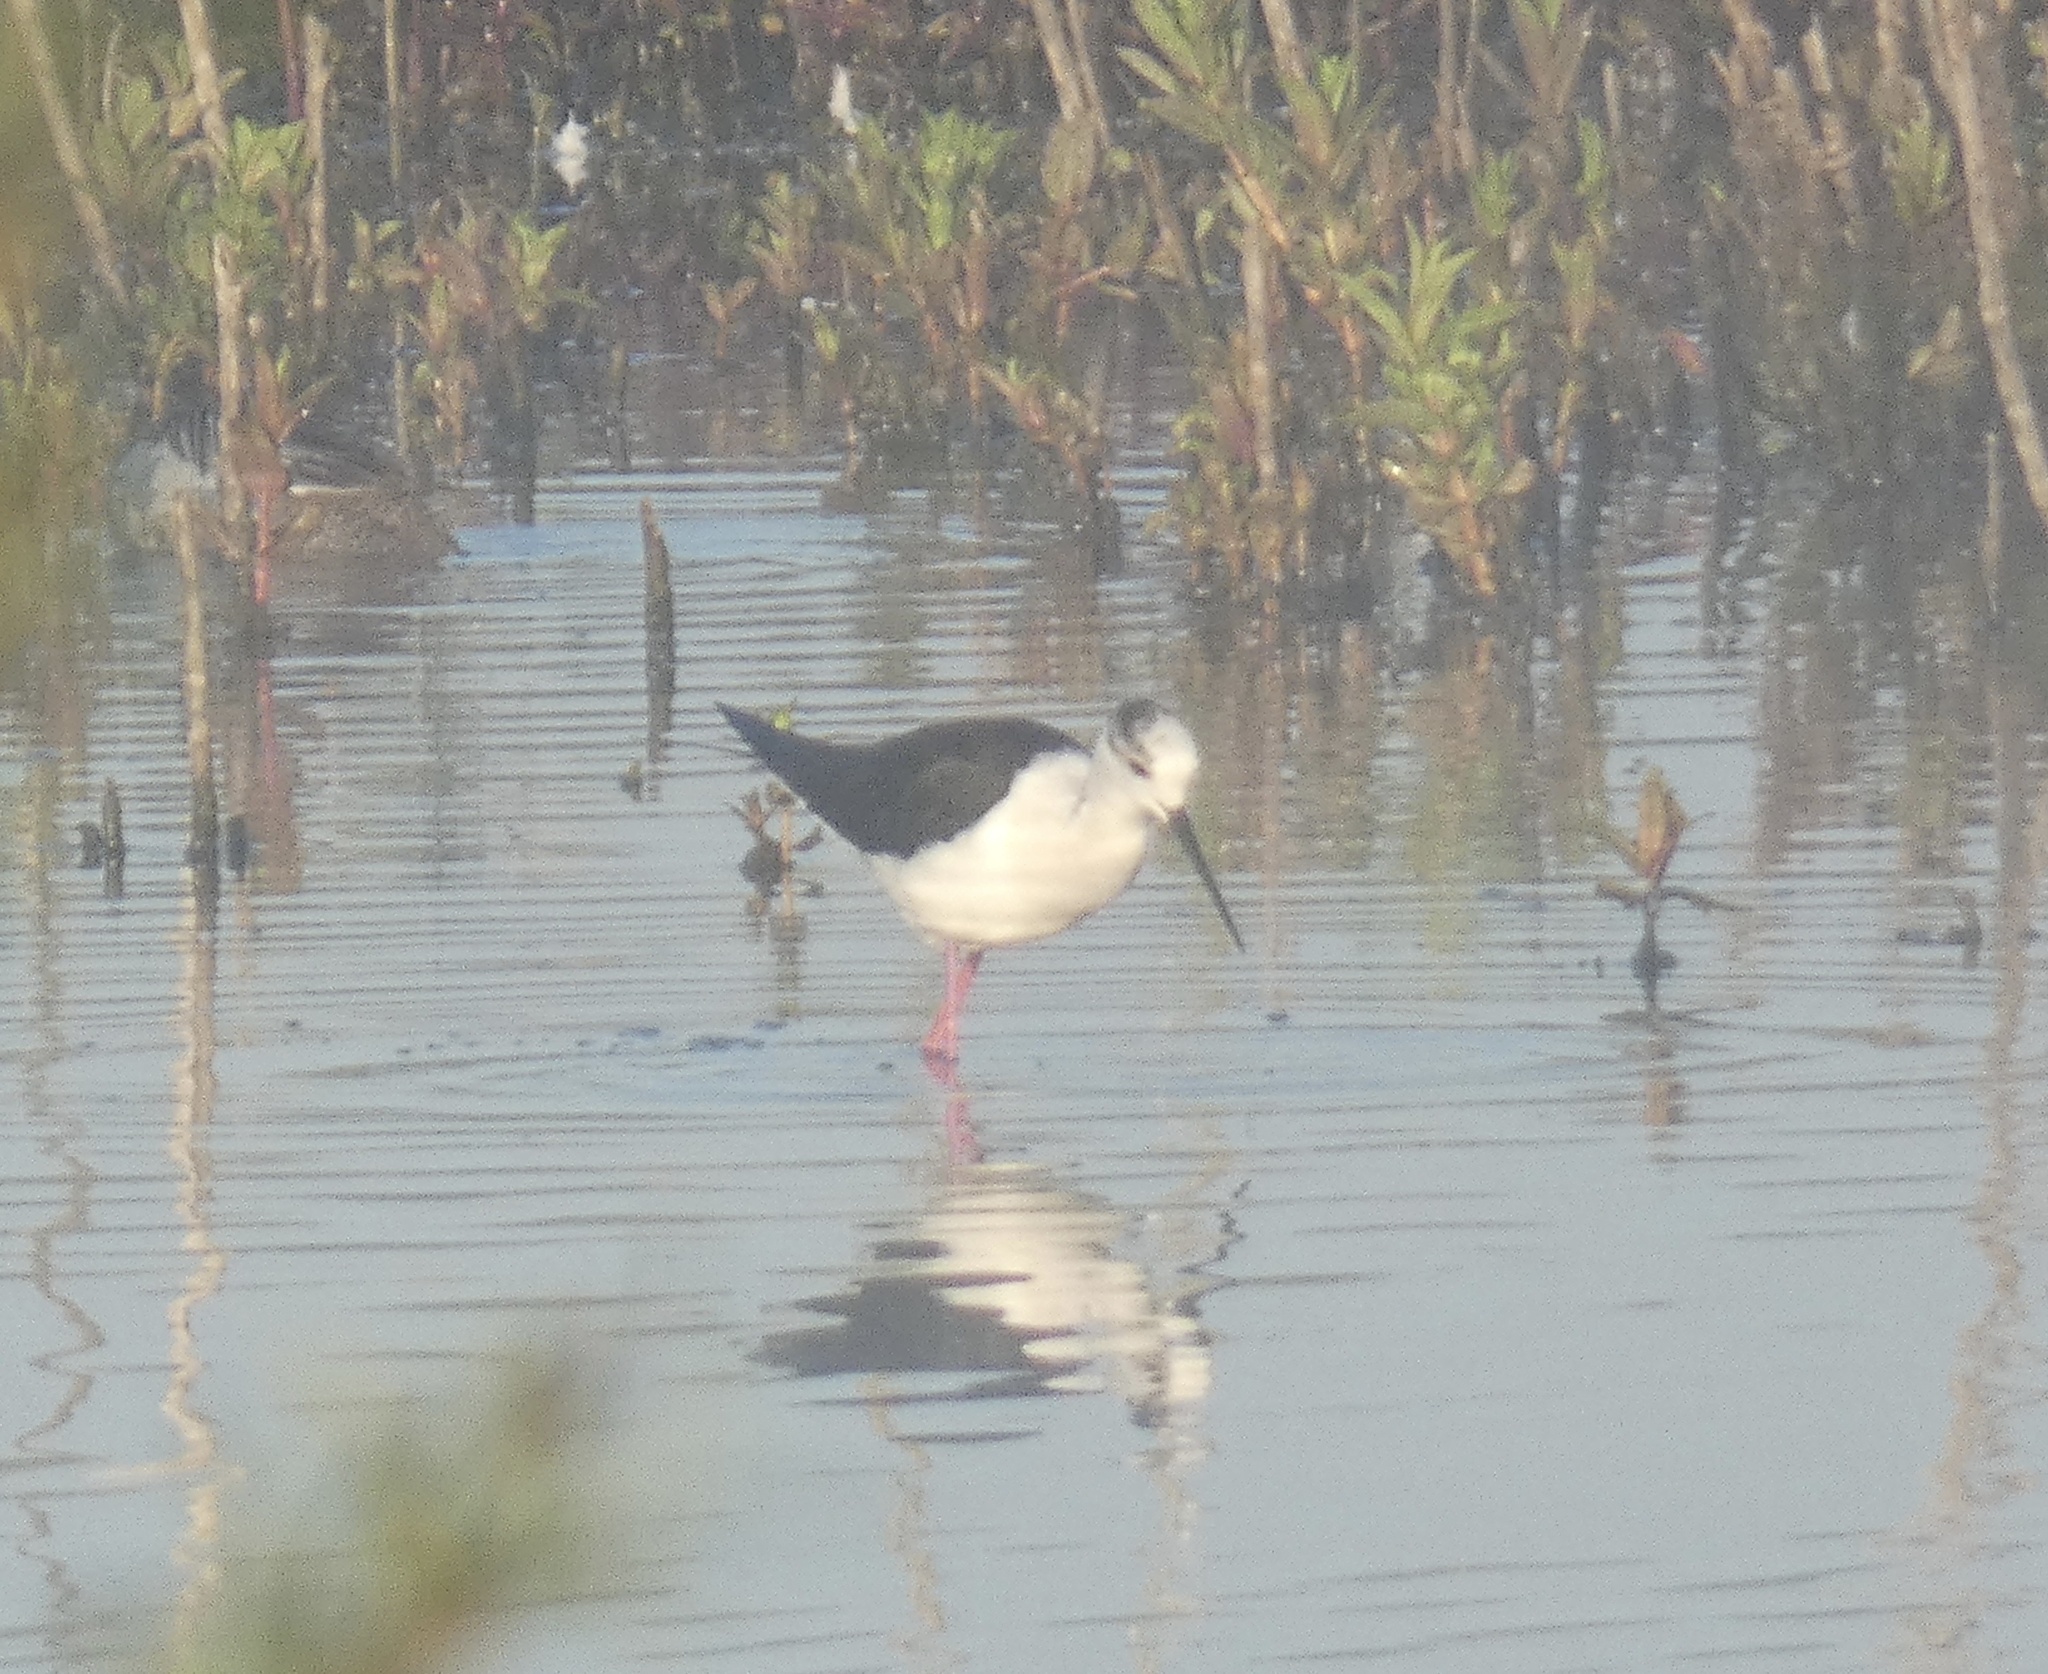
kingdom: Animalia
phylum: Chordata
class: Aves
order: Charadriiformes
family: Recurvirostridae
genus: Himantopus
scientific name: Himantopus himantopus
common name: Black-winged stilt
